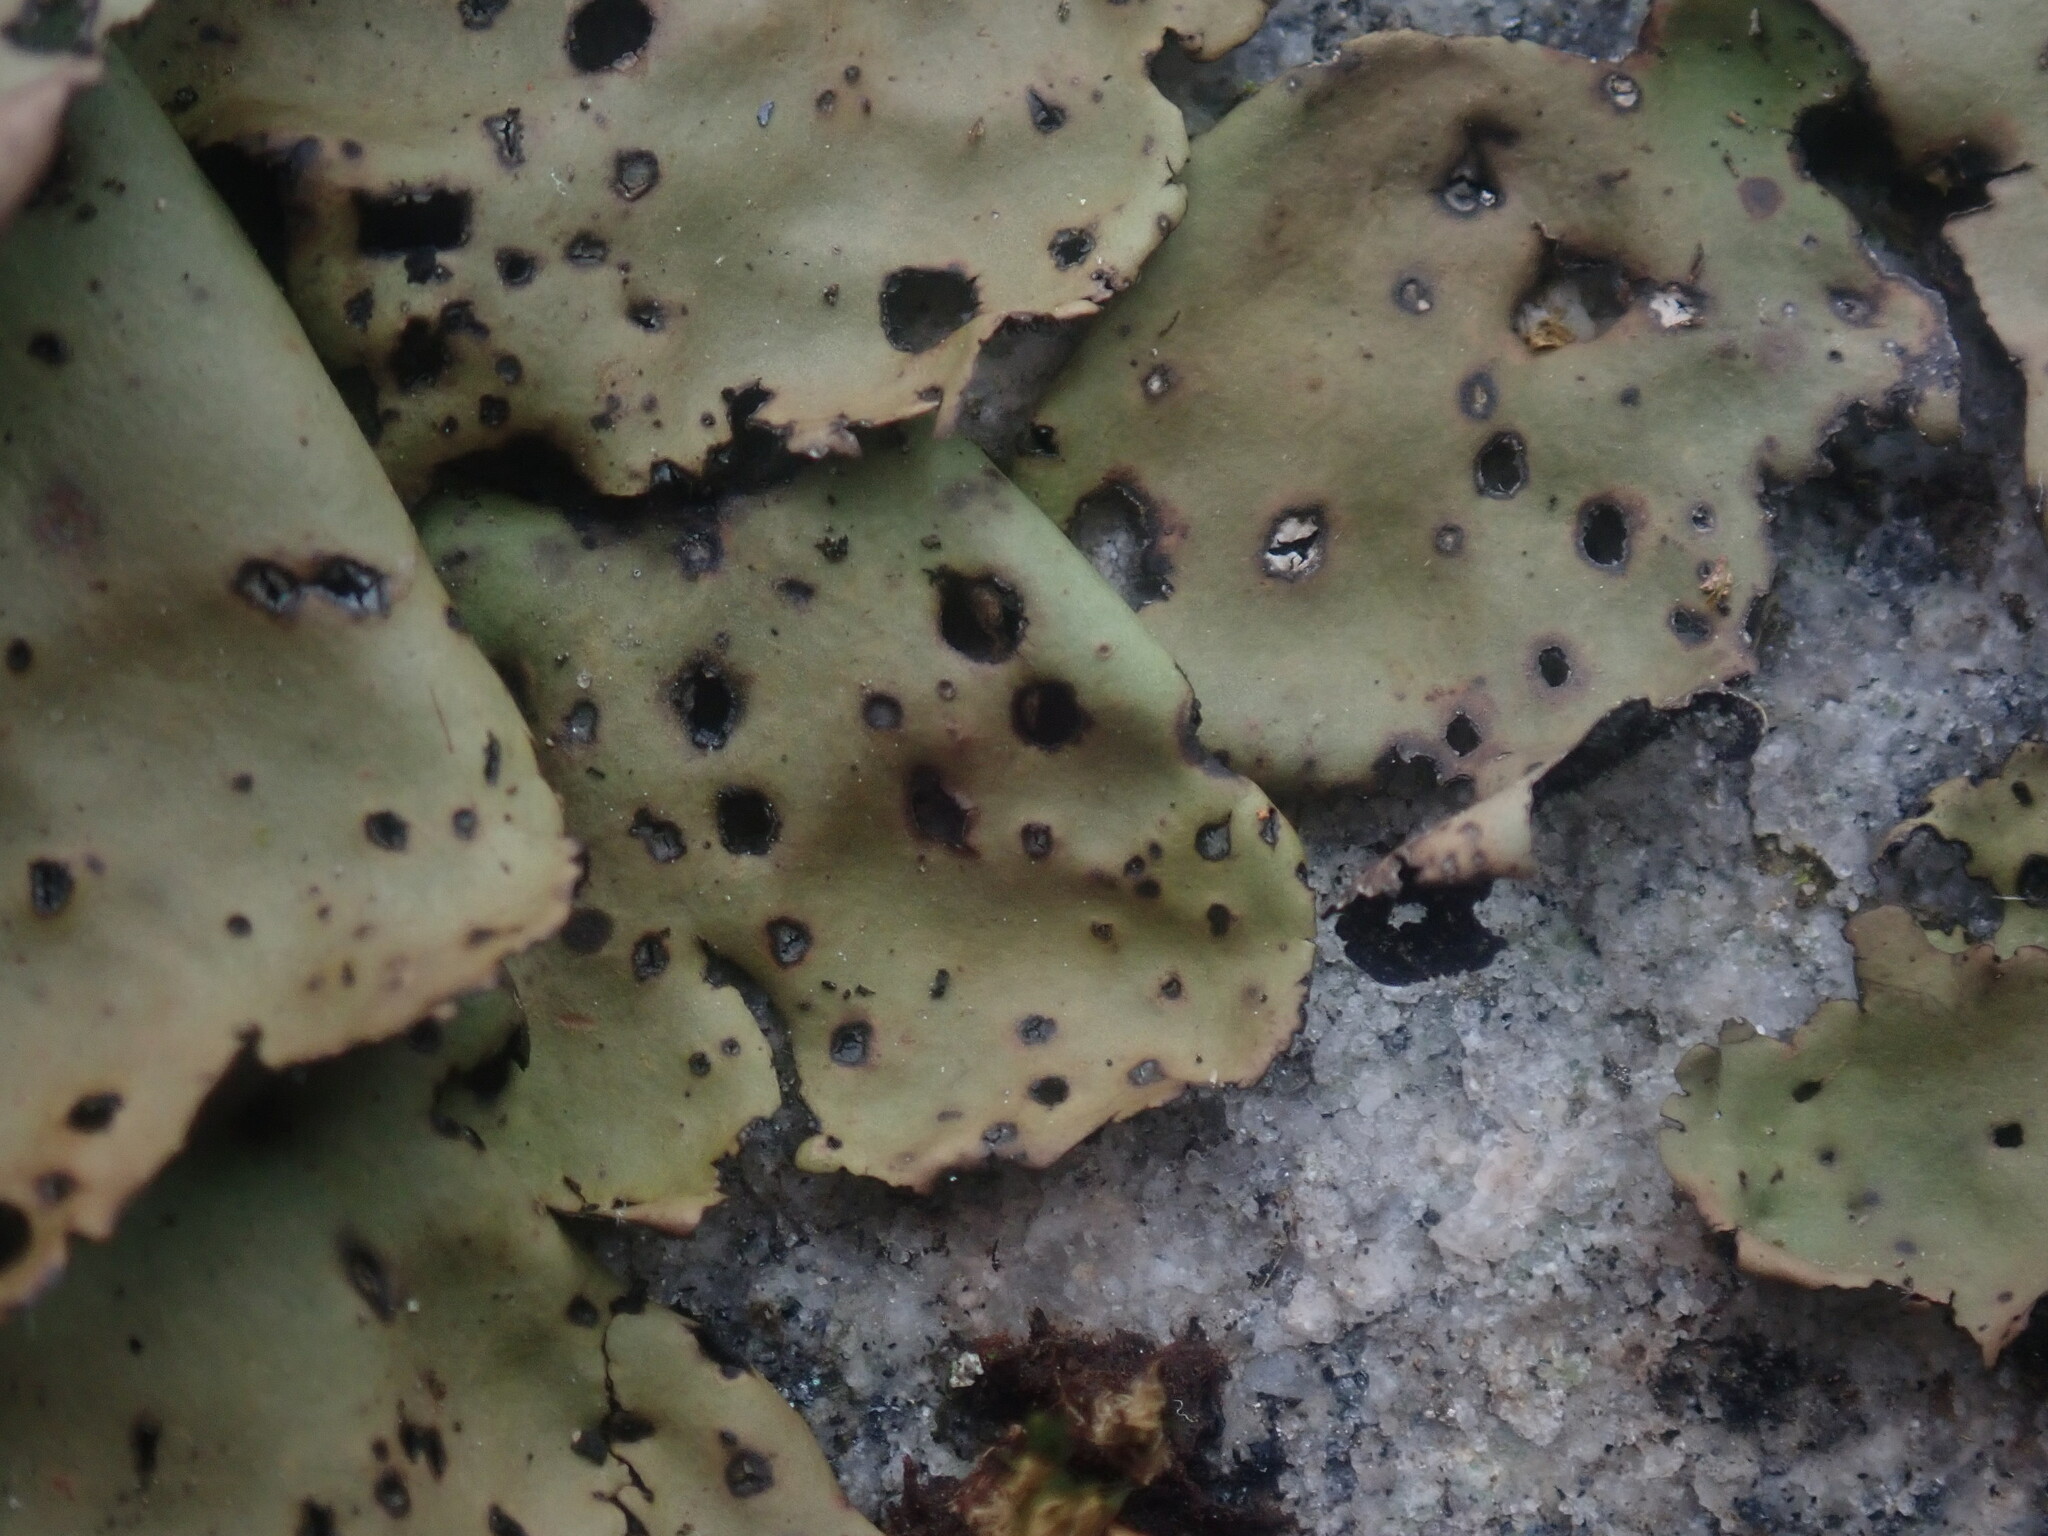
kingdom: Fungi
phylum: Ascomycota
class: Lecanoromycetes
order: Umbilicariales
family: Umbilicariaceae
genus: Umbilicaria
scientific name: Umbilicaria mammulata
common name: Smooth rock tripe
